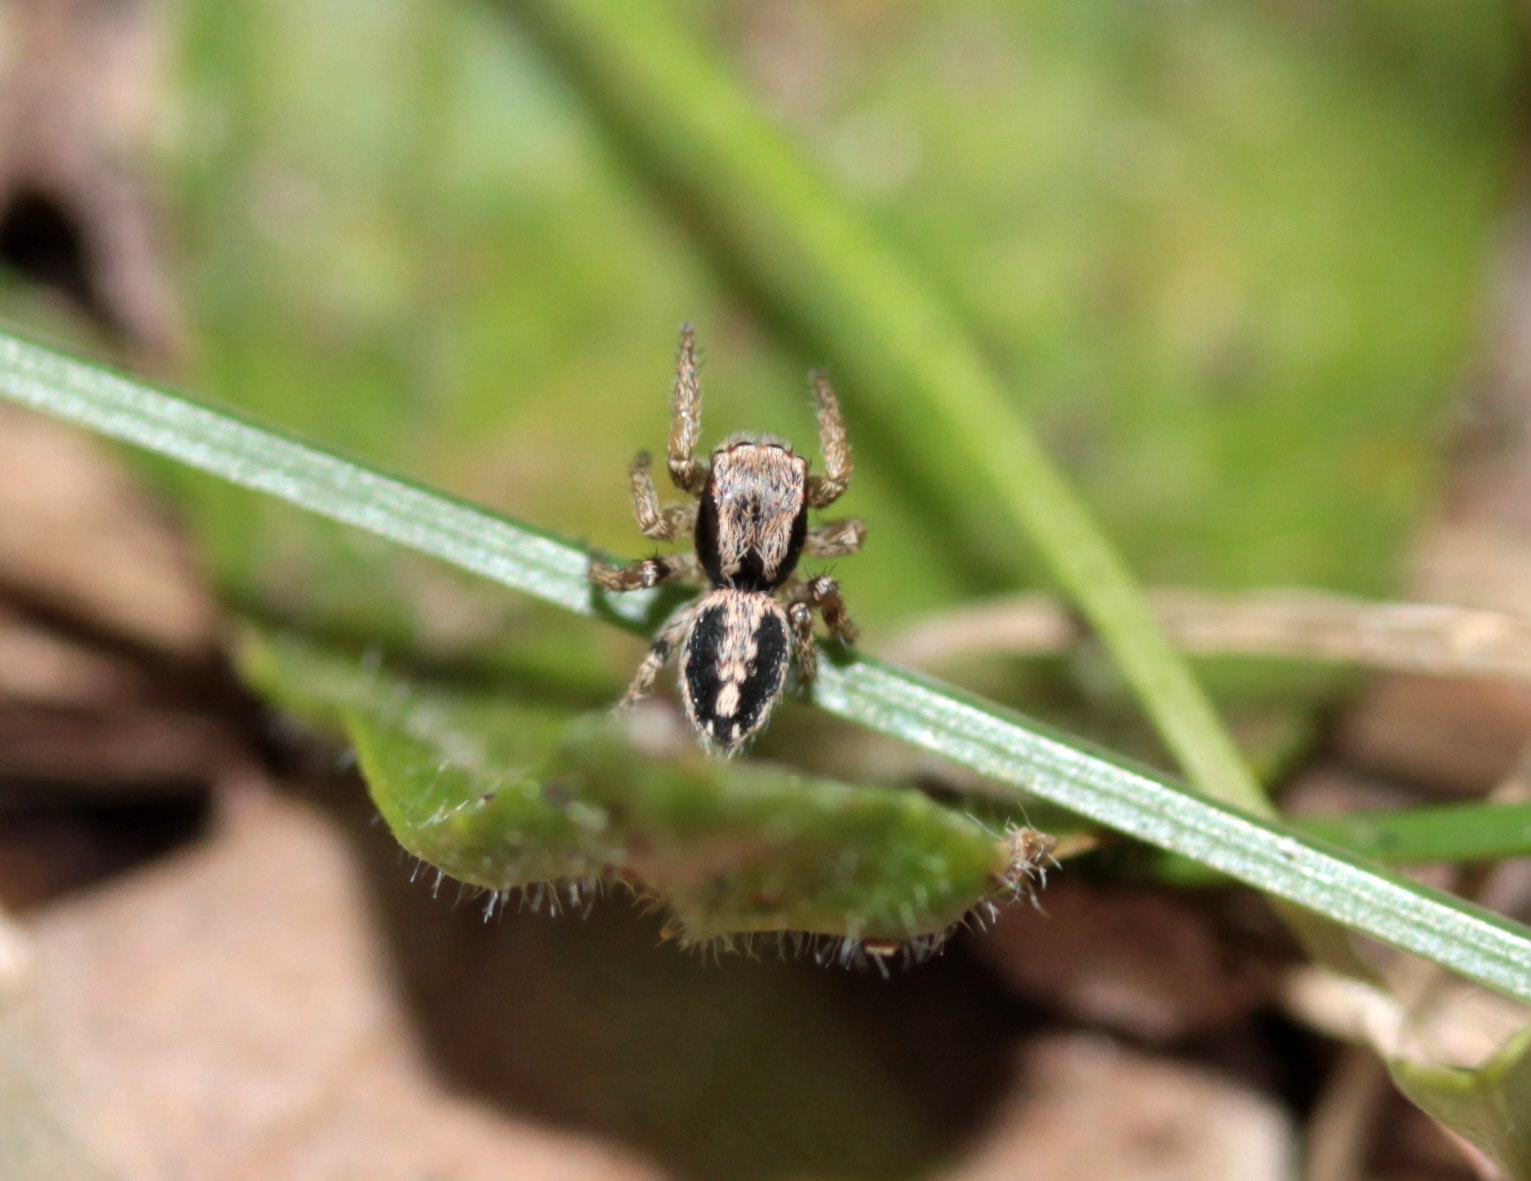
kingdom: Animalia
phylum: Arthropoda
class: Arachnida
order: Araneae
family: Salticidae
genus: Habronattus
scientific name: Habronattus pyrrithrix
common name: Jumping spider
